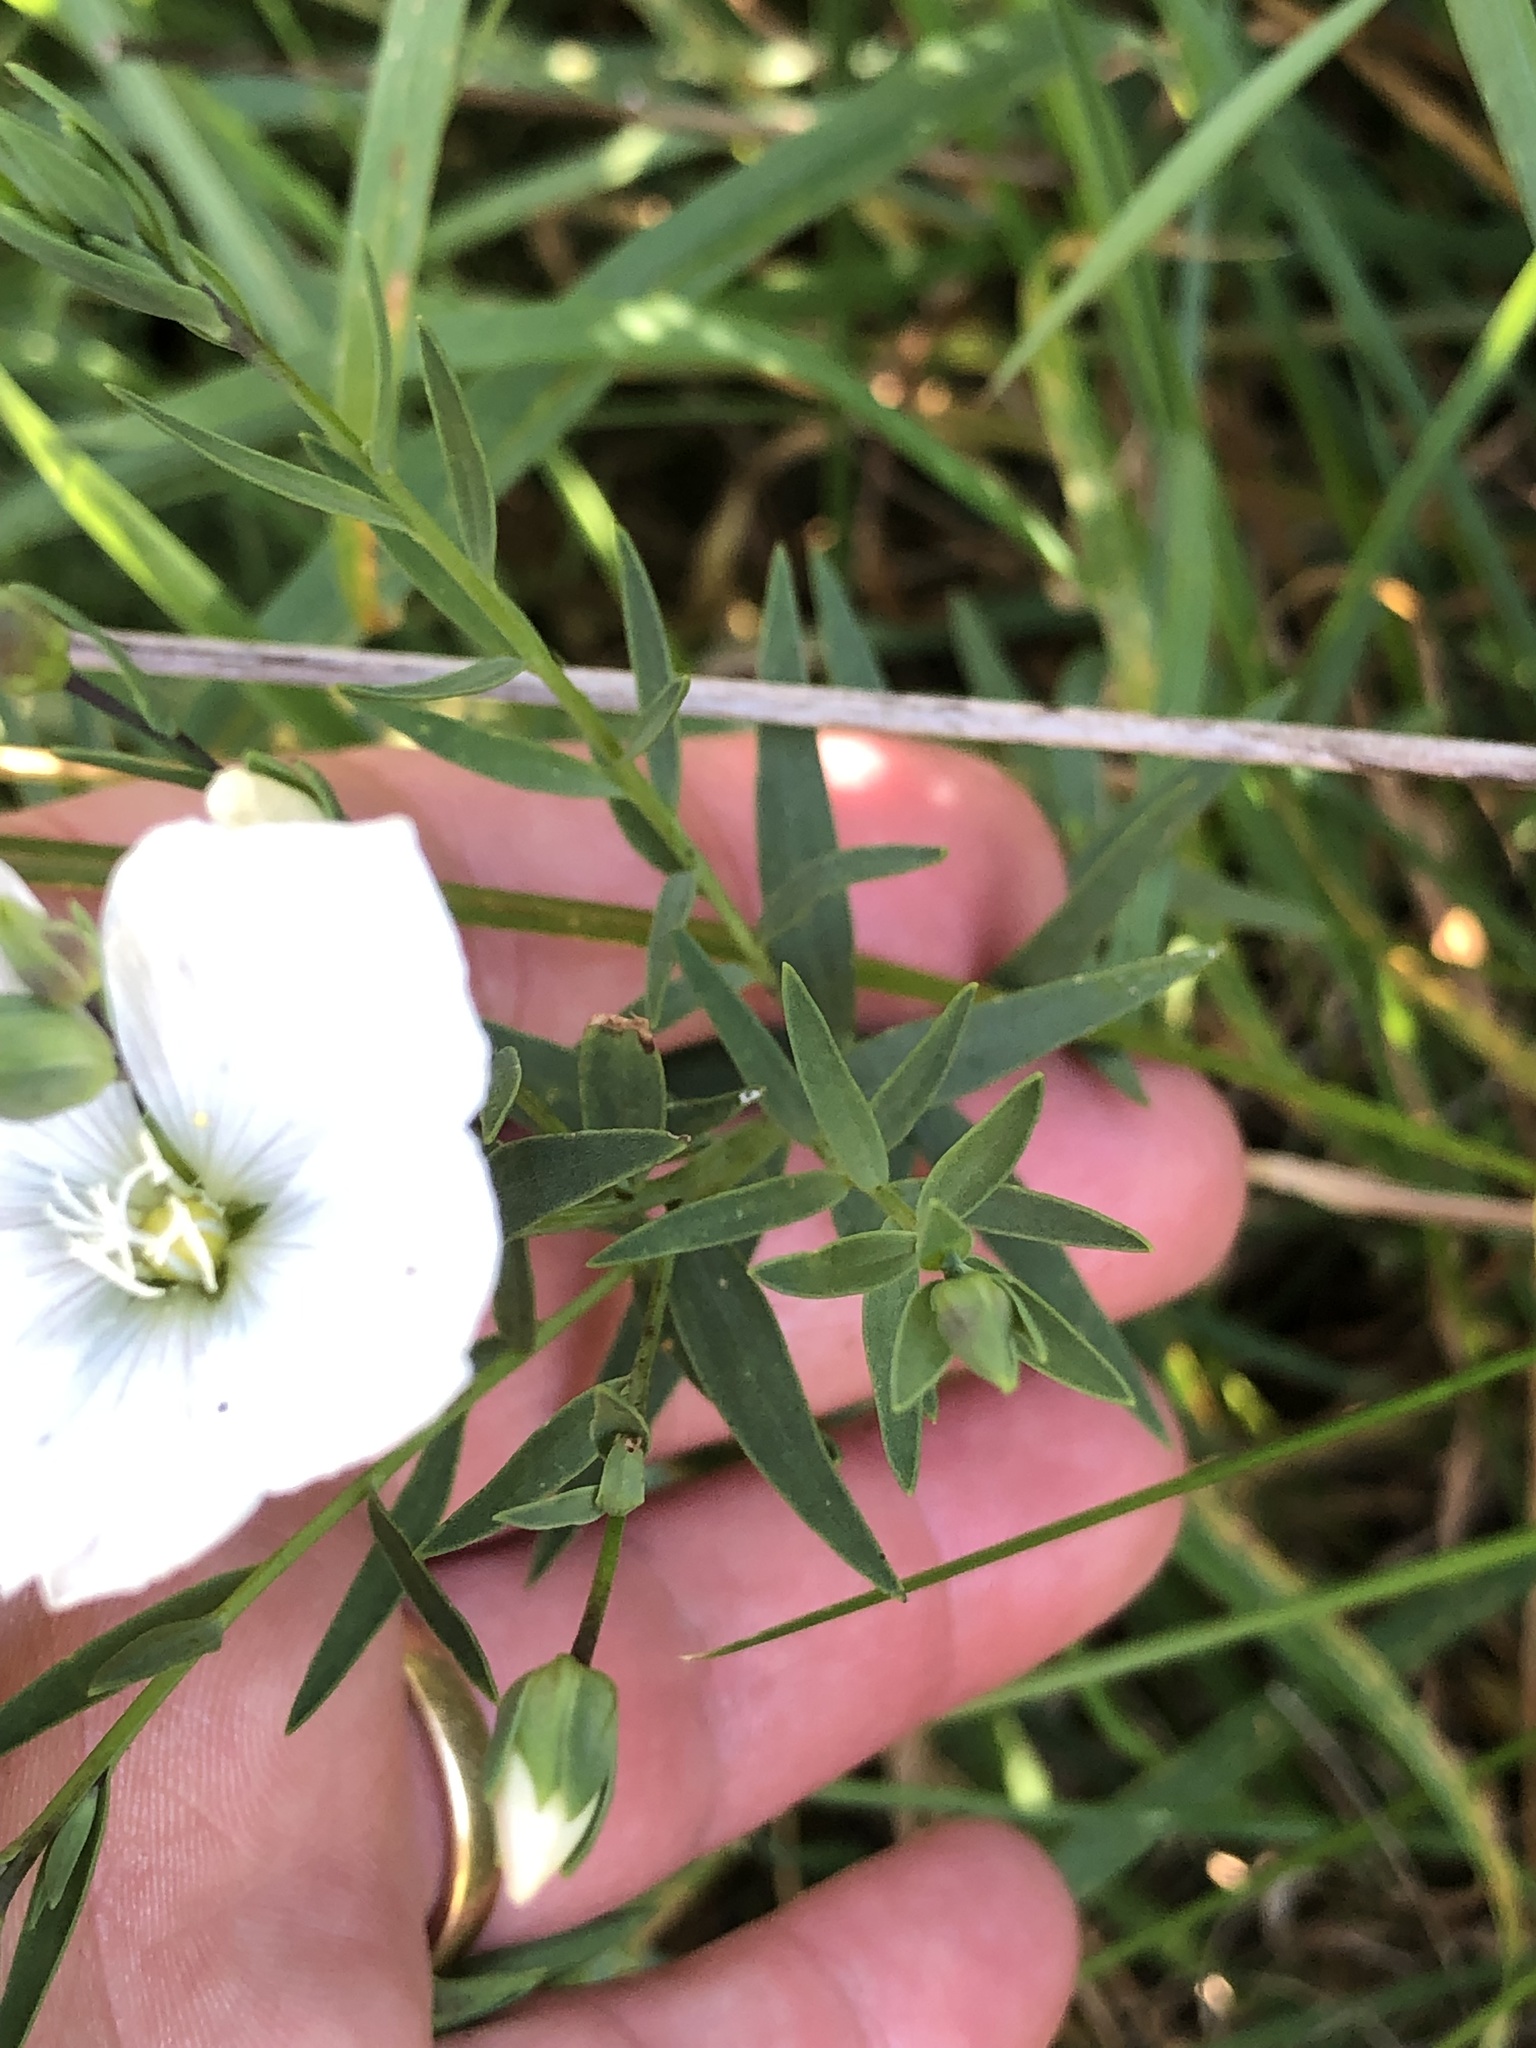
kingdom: Plantae
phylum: Tracheophyta
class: Magnoliopsida
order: Malpighiales
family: Linaceae
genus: Linum
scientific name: Linum monogynum
